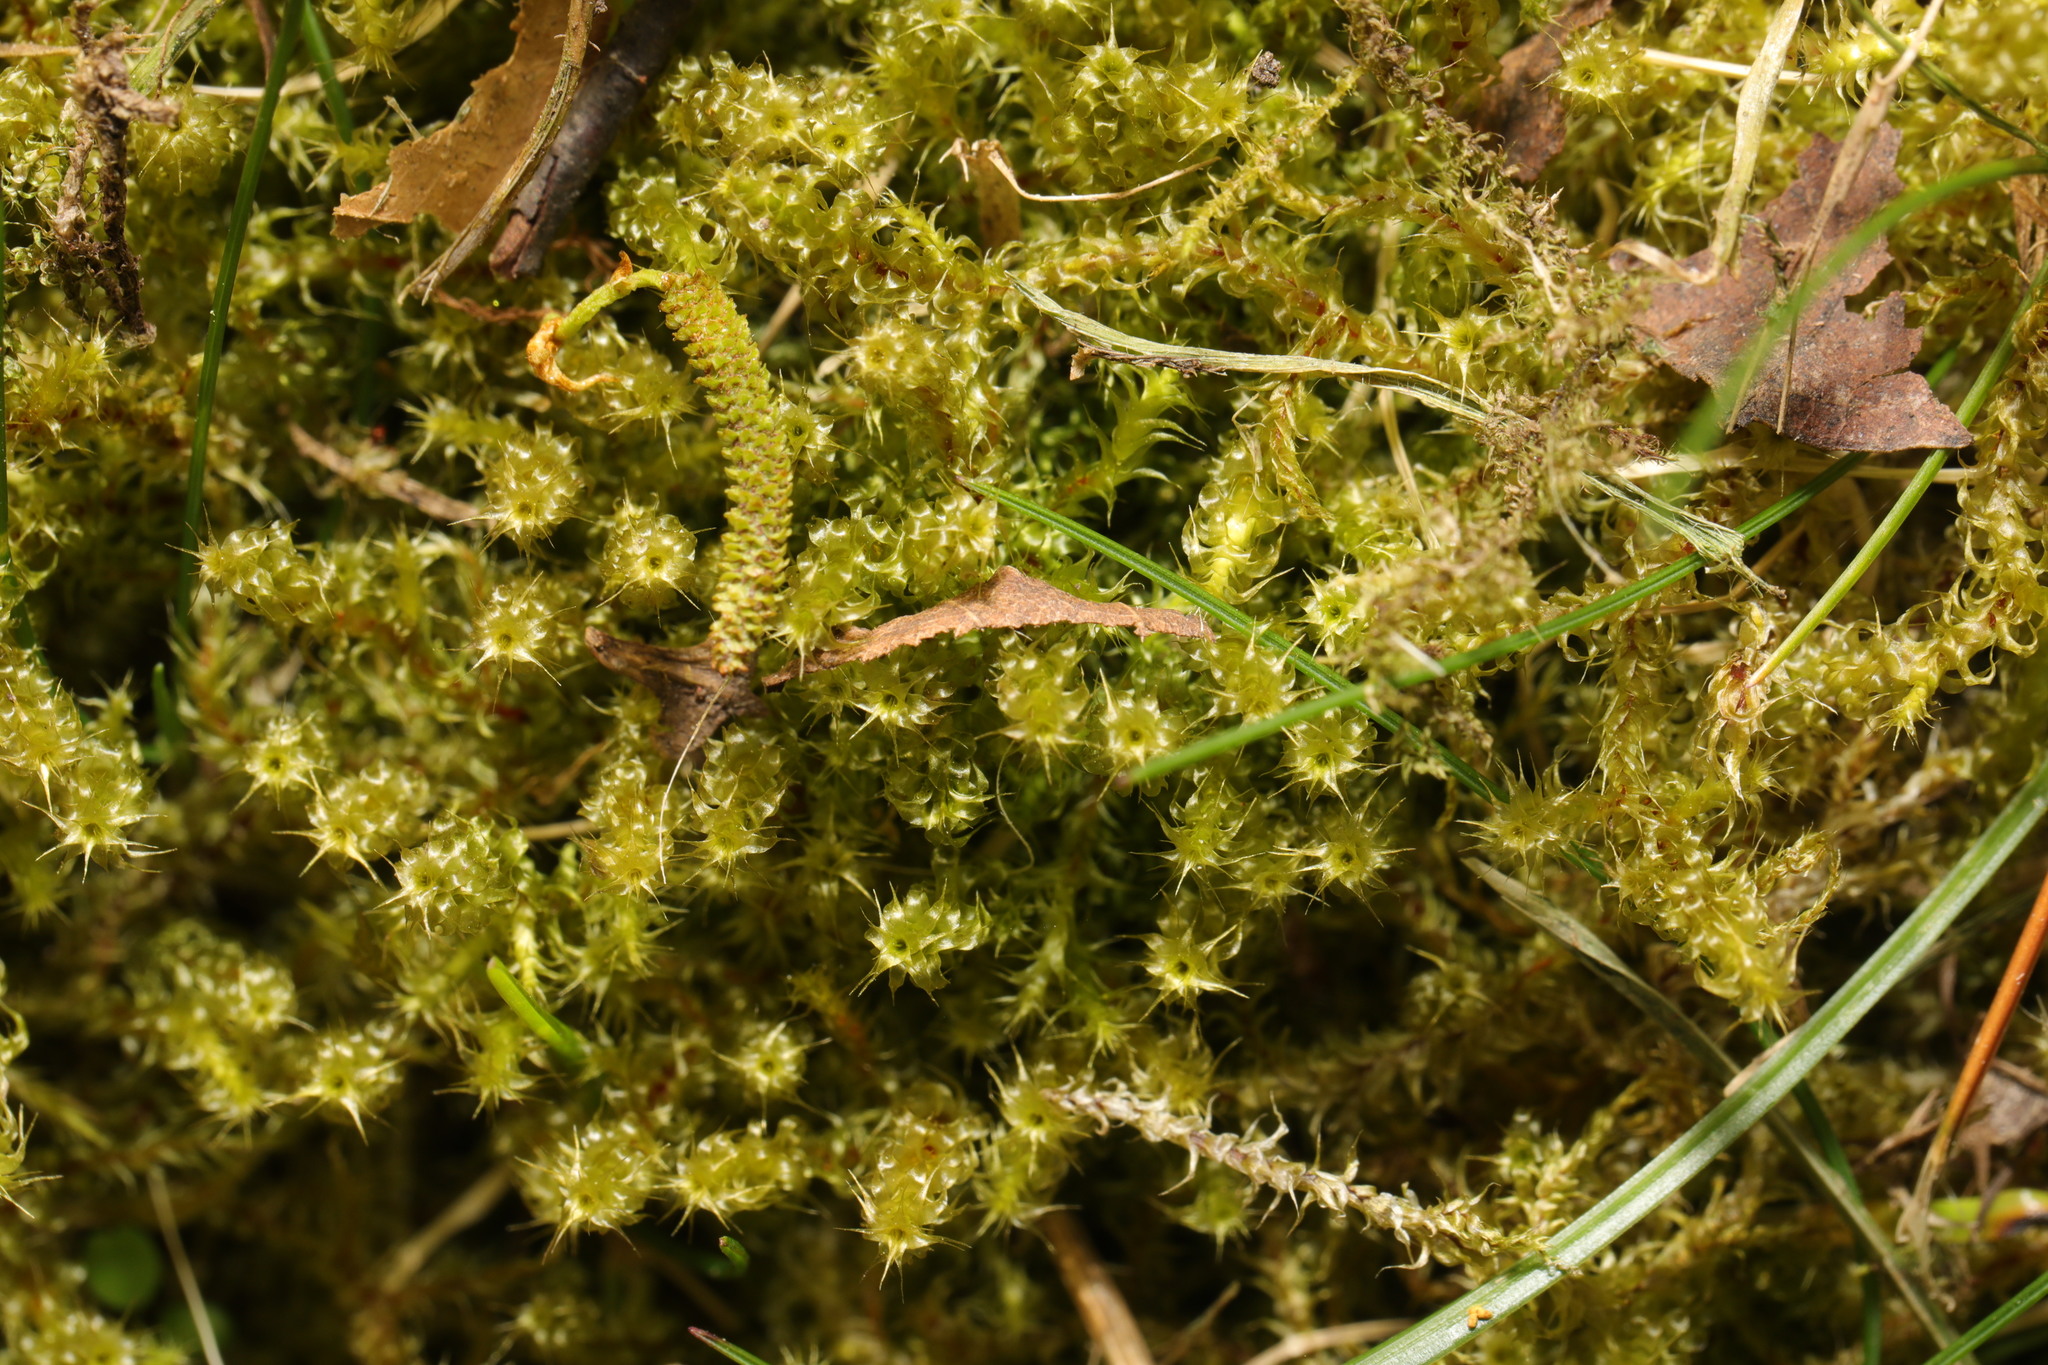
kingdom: Plantae
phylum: Bryophyta
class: Bryopsida
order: Hypnales
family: Hylocomiaceae
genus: Rhytidiadelphus
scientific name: Rhytidiadelphus squarrosus
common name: Springy turf-moss
